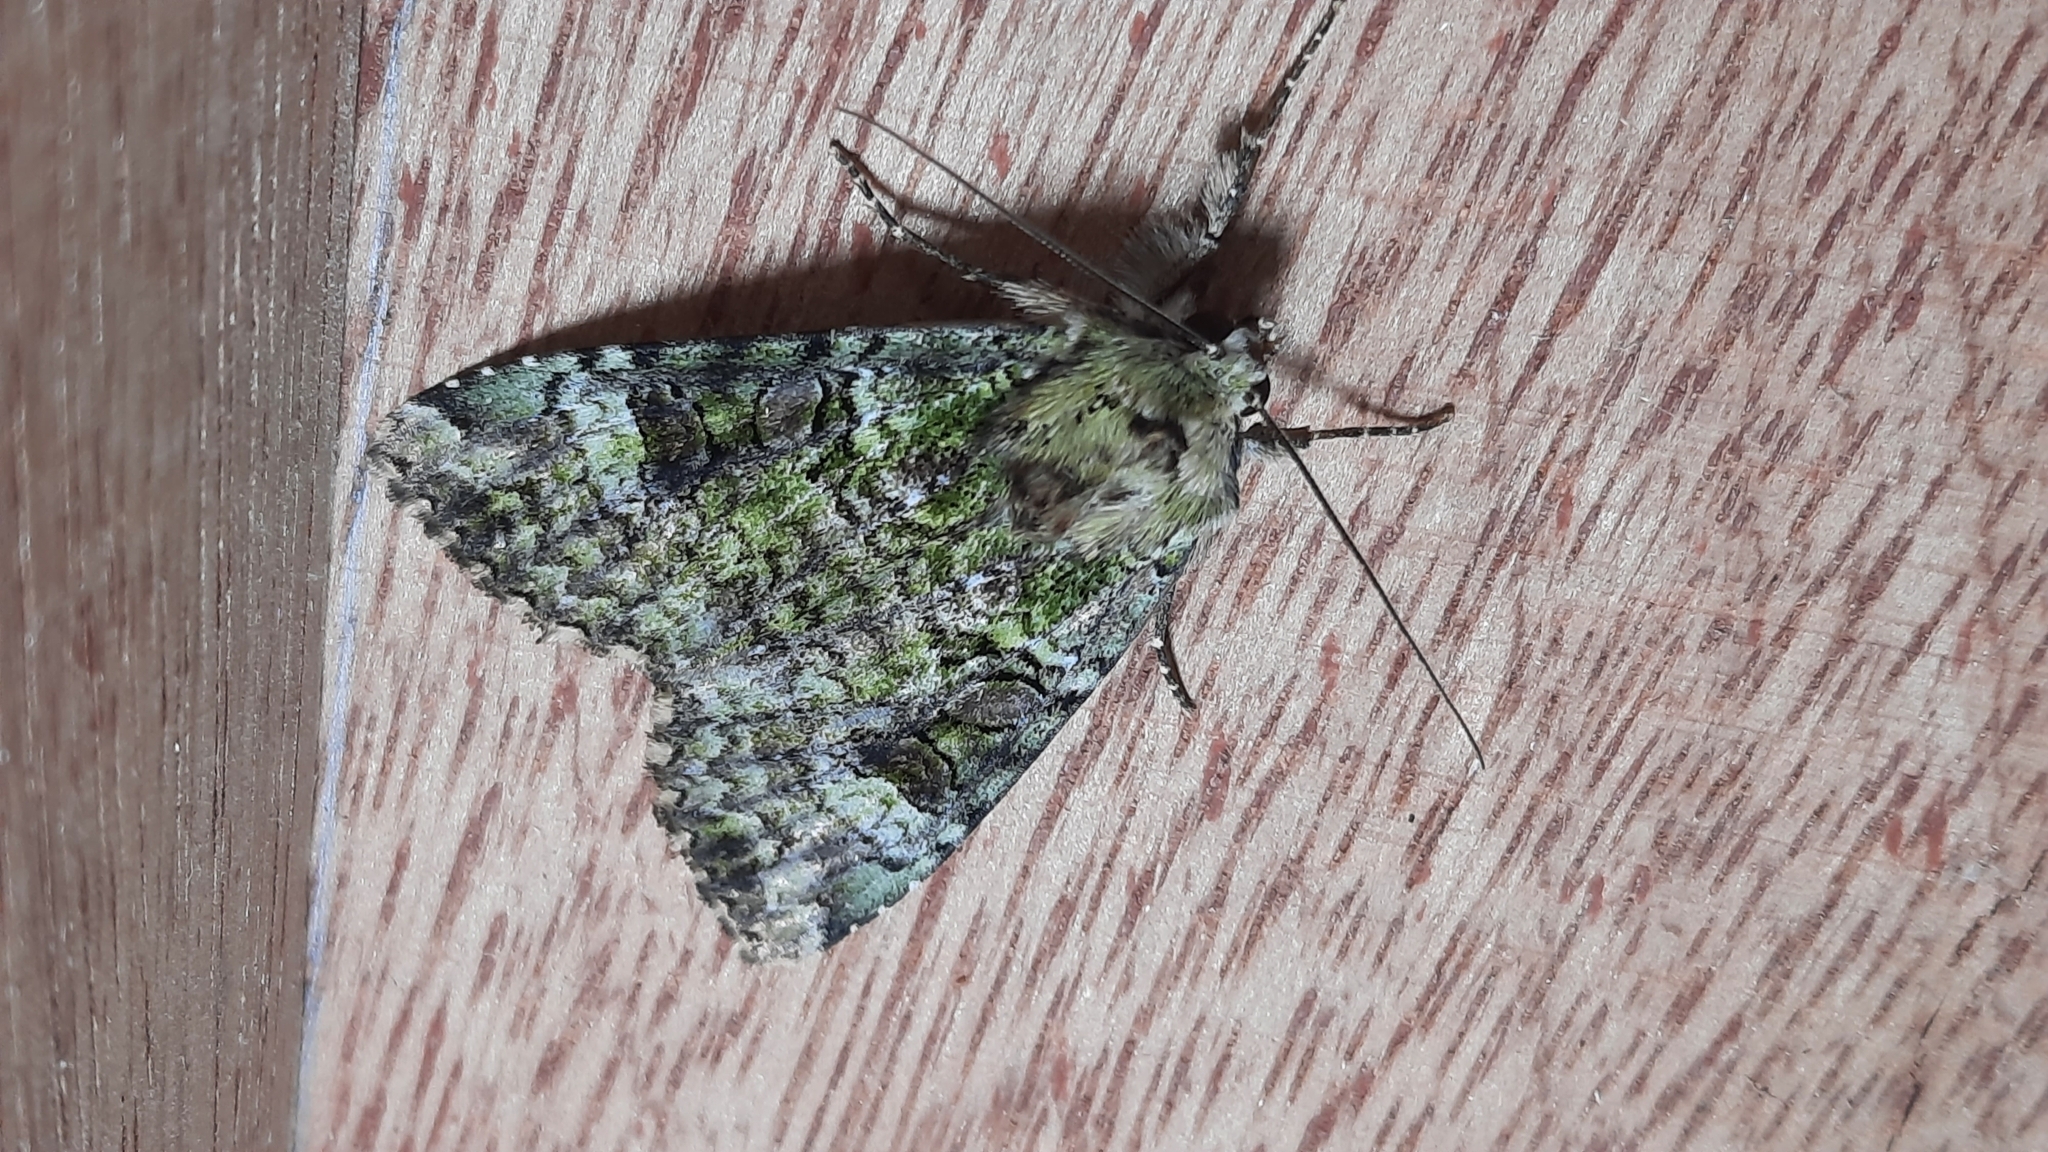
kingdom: Animalia
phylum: Arthropoda
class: Insecta
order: Lepidoptera
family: Noctuidae
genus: Anaplectoides
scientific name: Anaplectoides prasina
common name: Green arches
